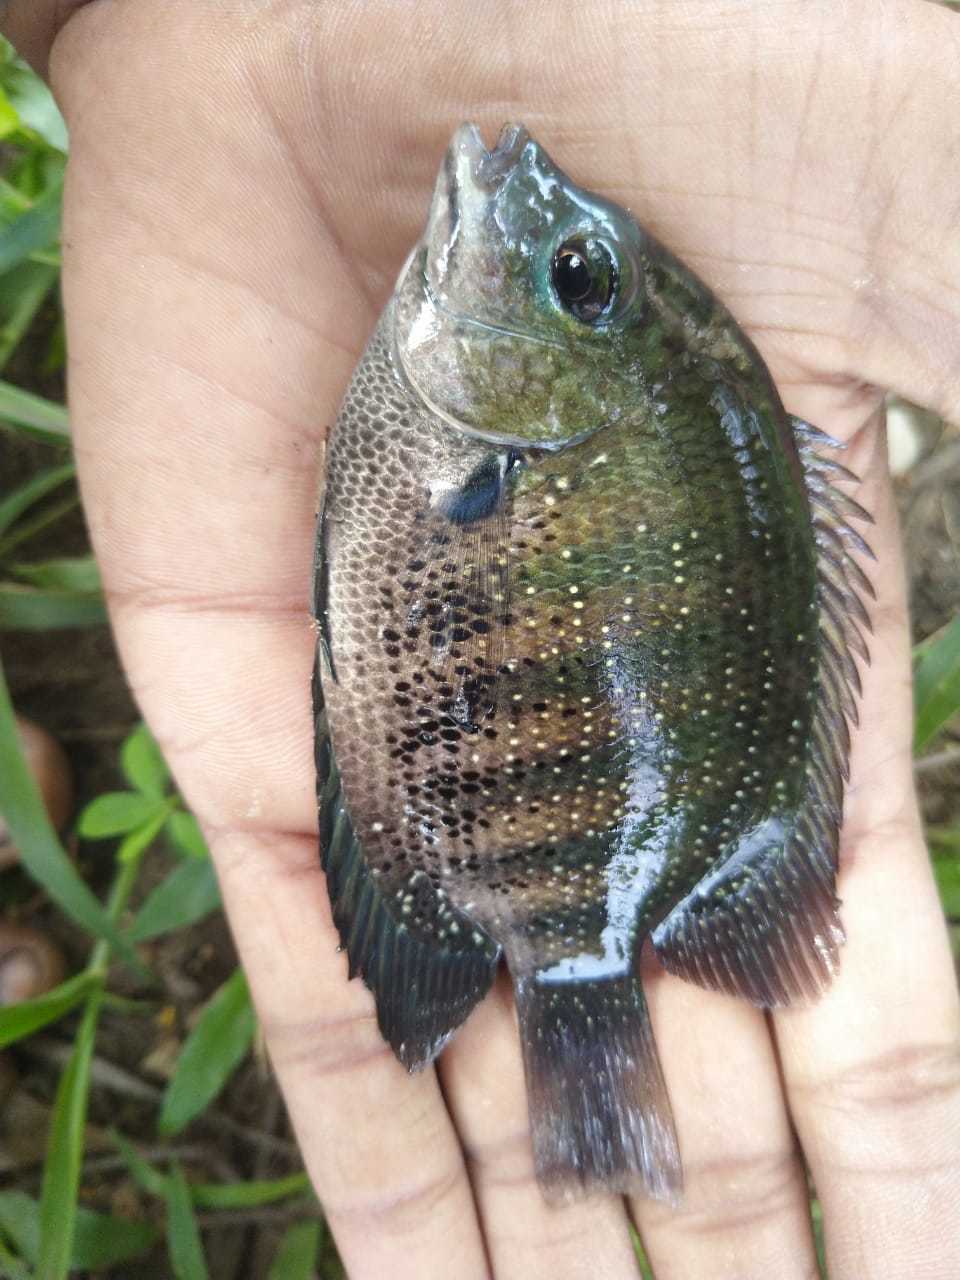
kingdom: Animalia
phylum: Chordata
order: Perciformes
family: Cichlidae
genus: Etroplus
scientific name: Etroplus suratensis
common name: Green chromide
